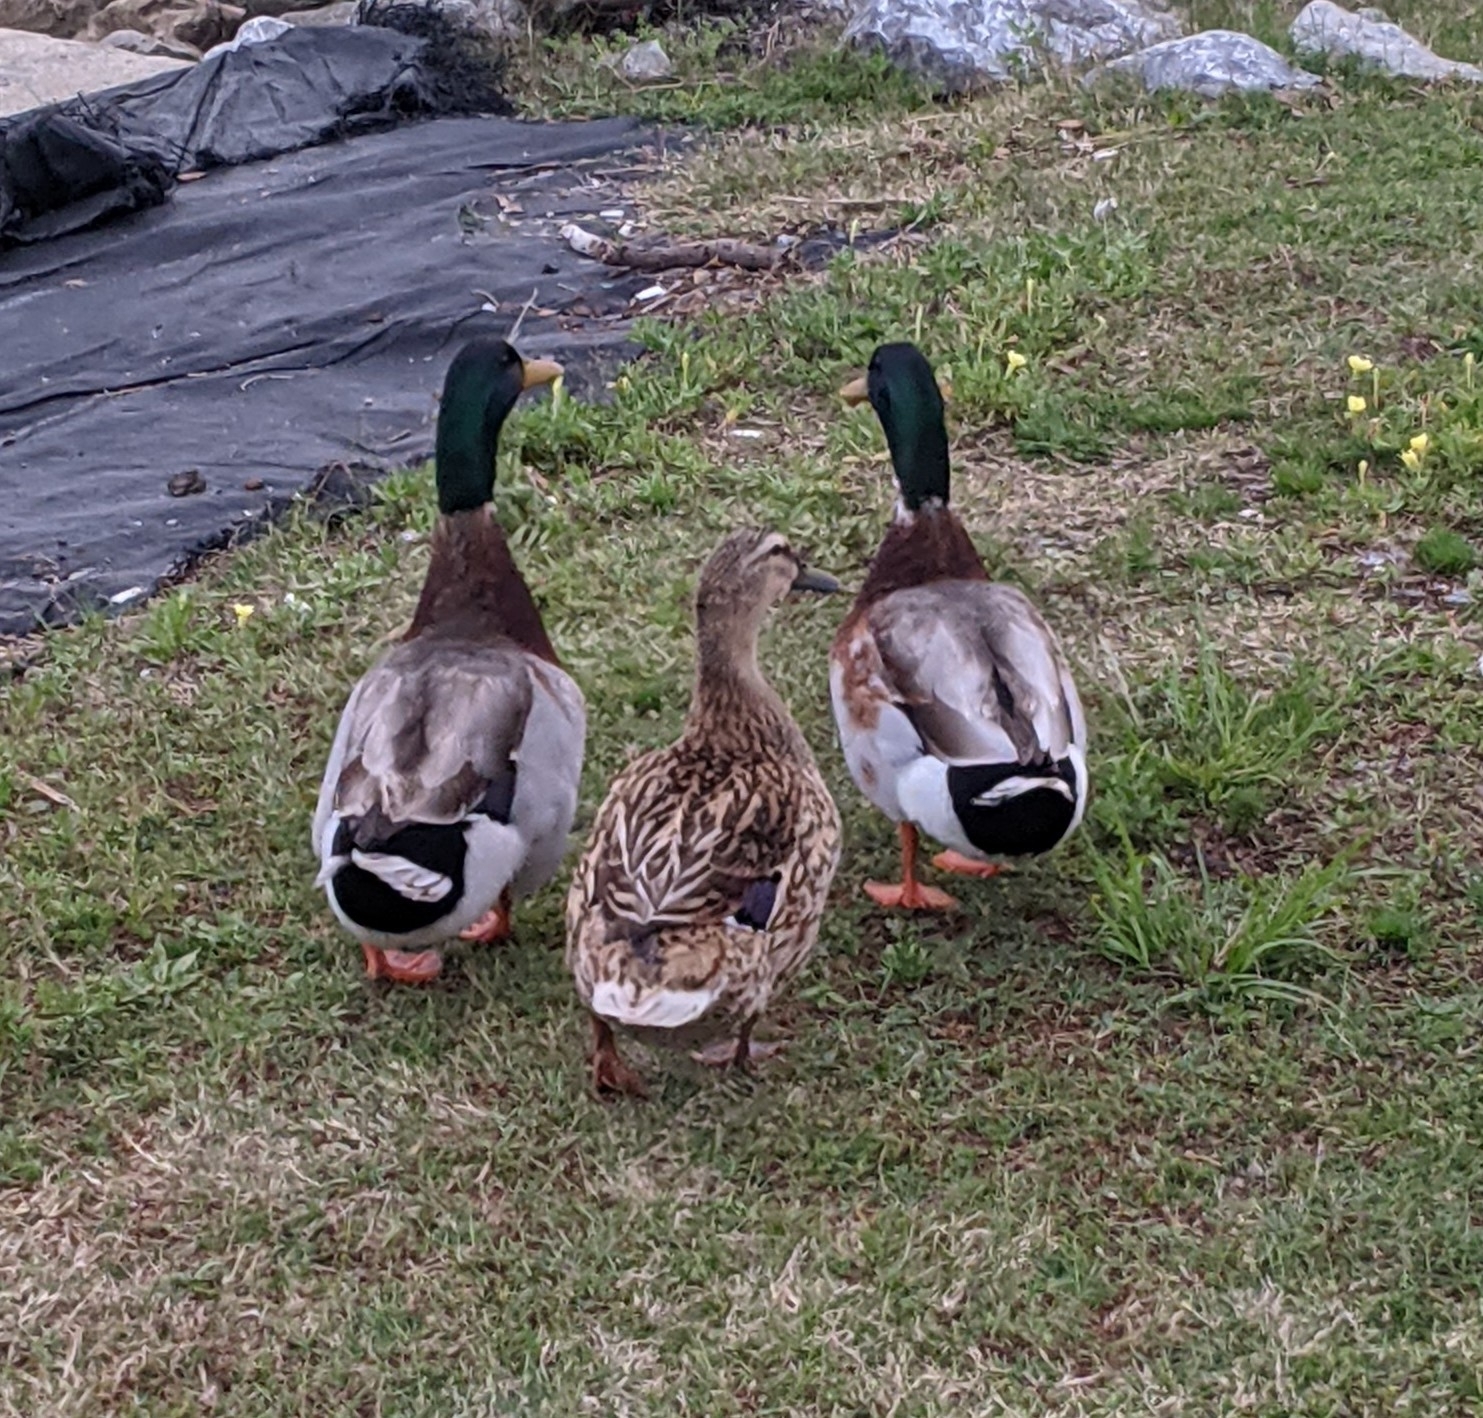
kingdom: Animalia
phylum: Chordata
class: Aves
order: Anseriformes
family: Anatidae
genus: Anas
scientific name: Anas platyrhynchos
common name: Mallard
